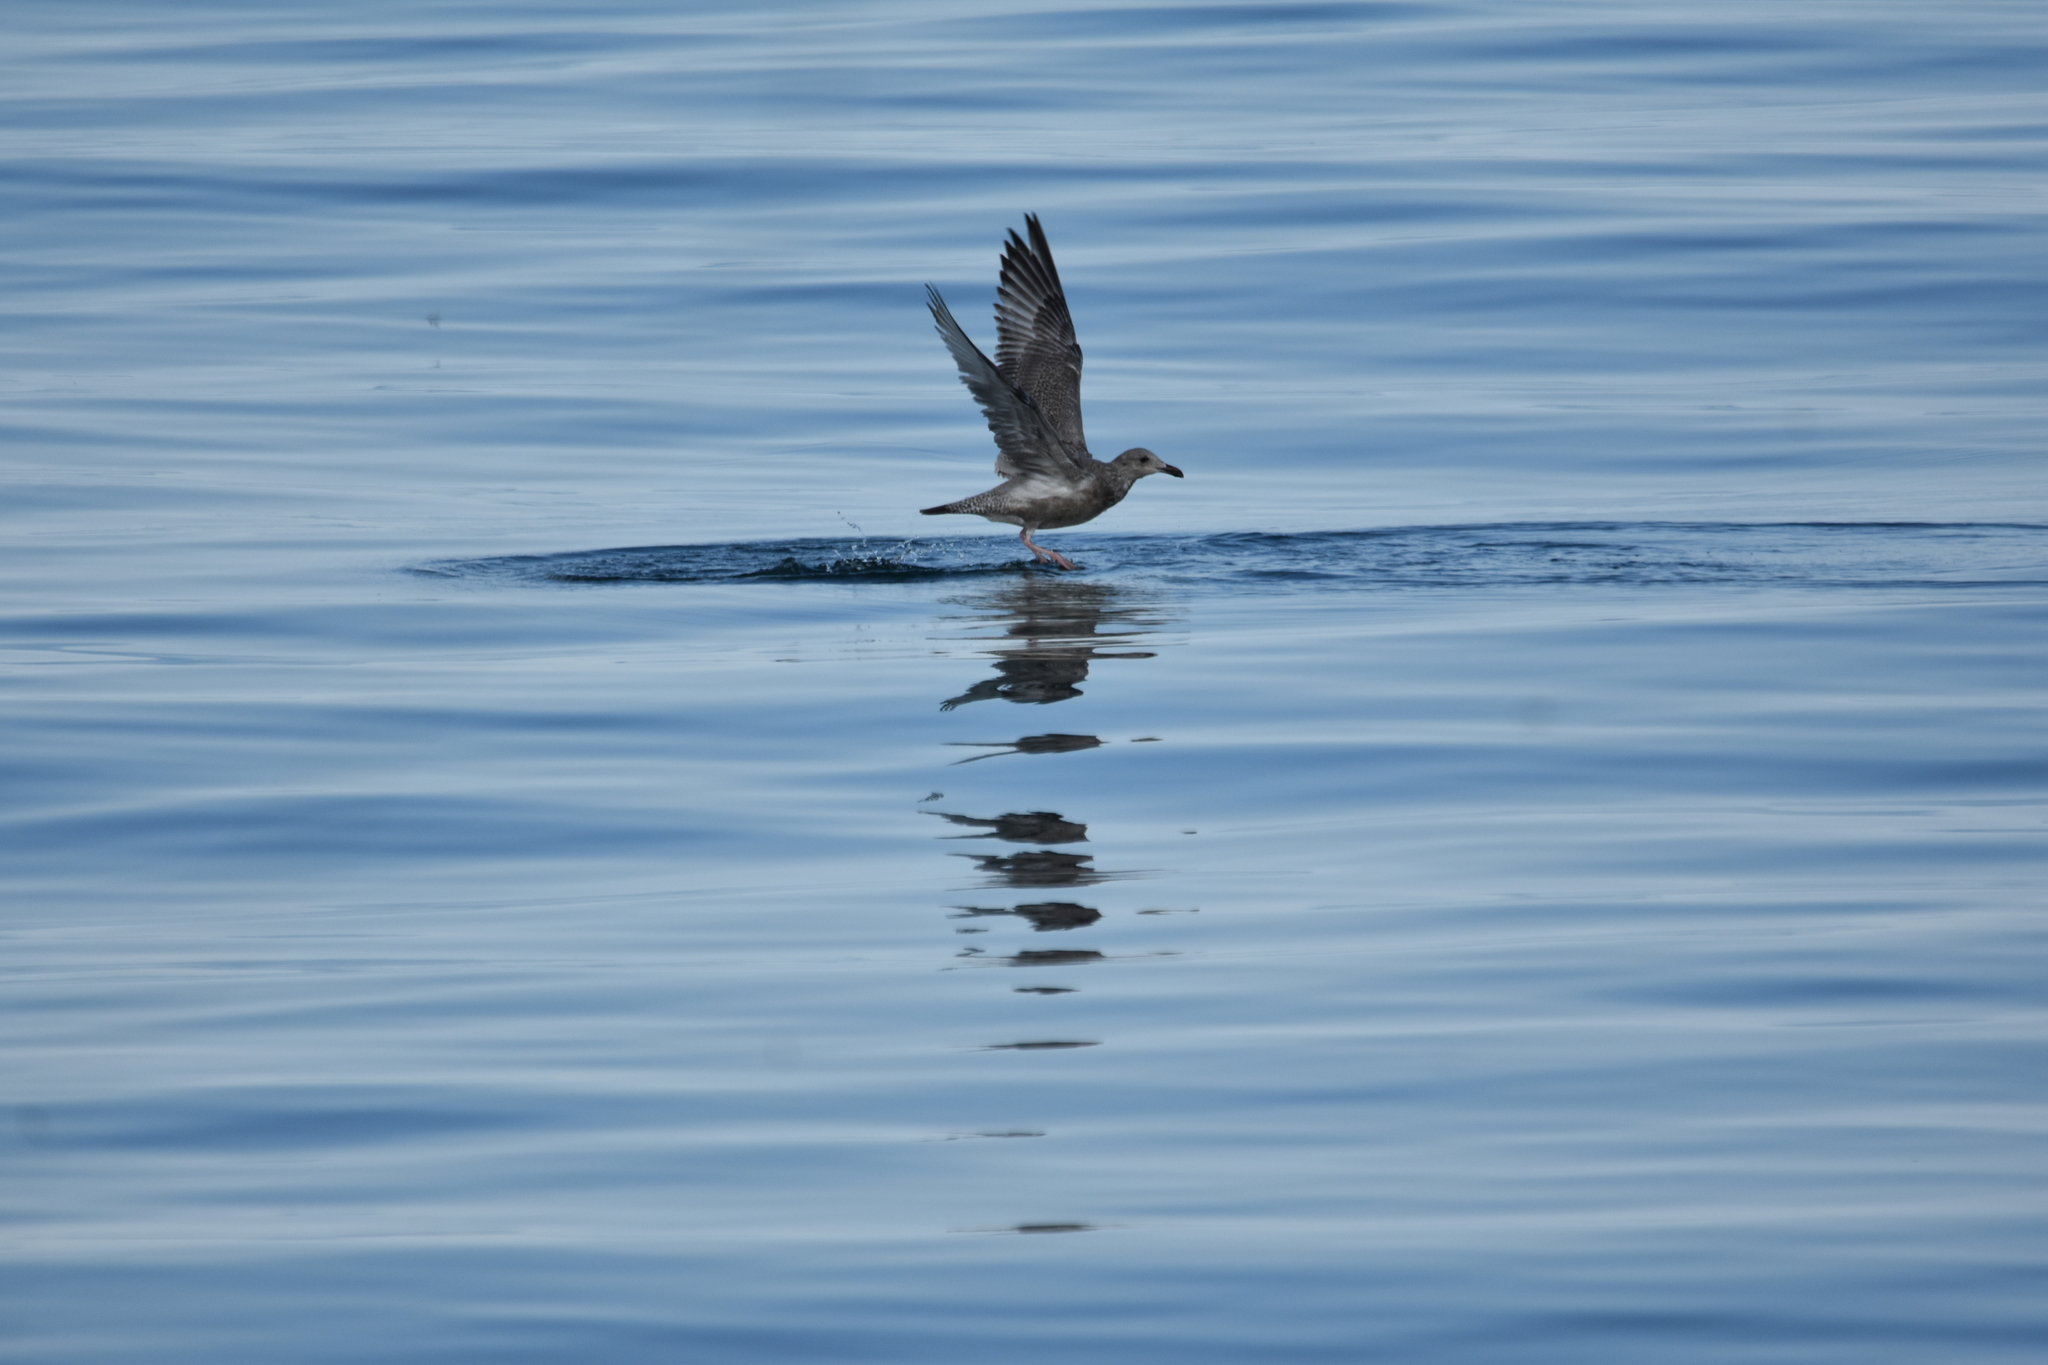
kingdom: Animalia
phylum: Chordata
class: Aves
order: Charadriiformes
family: Laridae
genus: Larus
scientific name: Larus argentatus
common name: Herring gull
